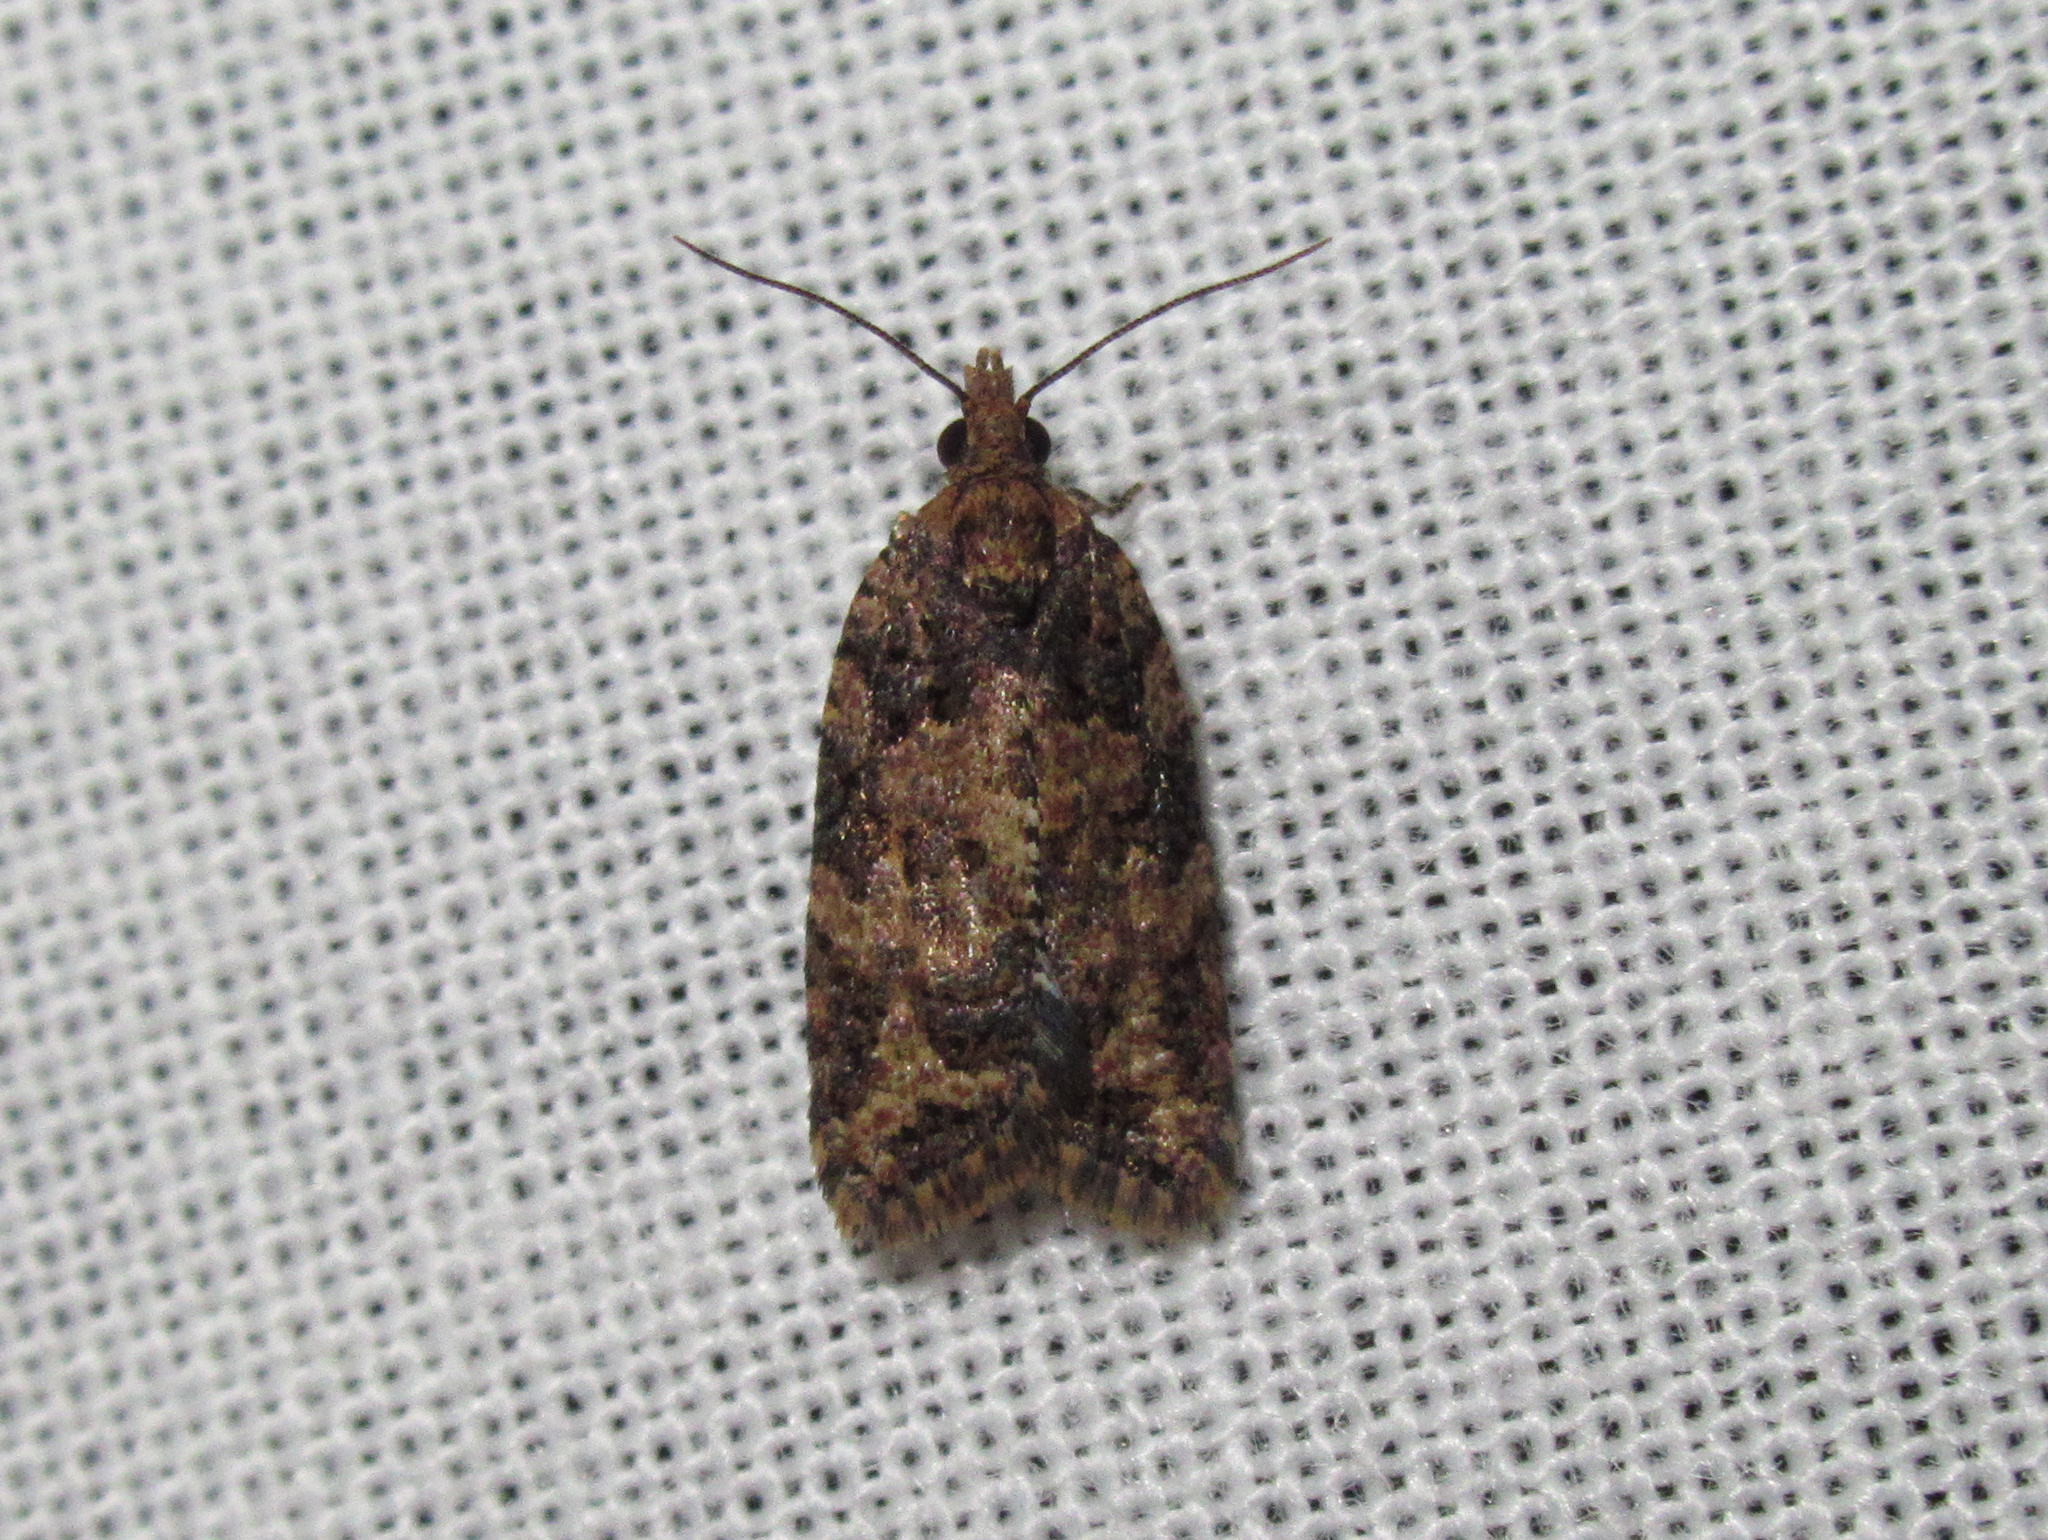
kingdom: Animalia
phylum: Arthropoda
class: Insecta
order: Lepidoptera
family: Tortricidae
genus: Capua
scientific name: Capua intractana
